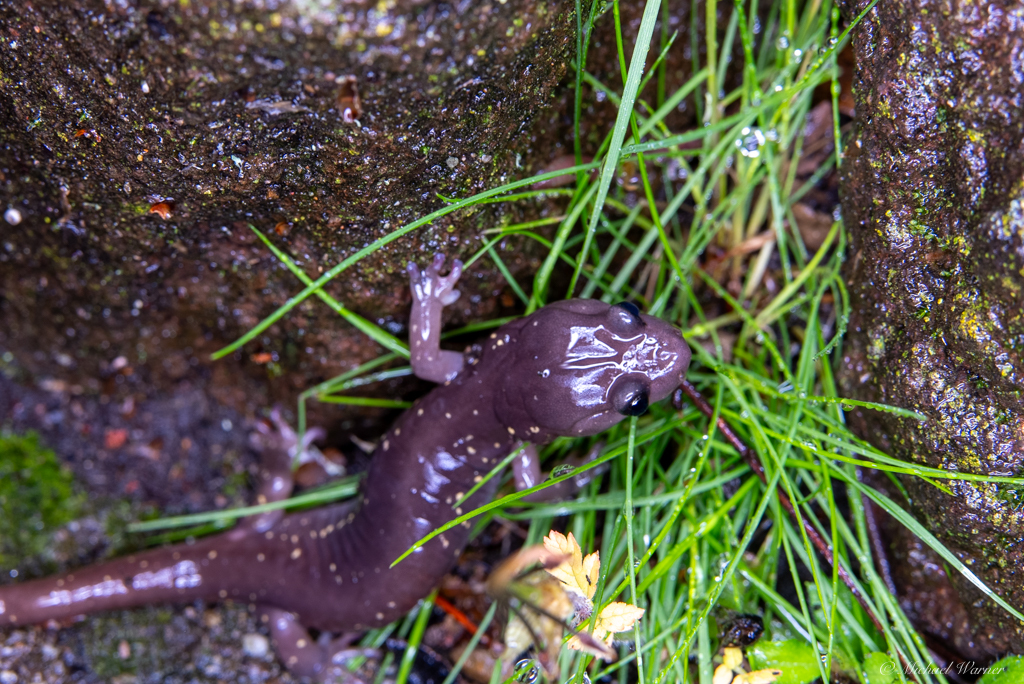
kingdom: Animalia
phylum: Chordata
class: Amphibia
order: Caudata
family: Plethodontidae
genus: Aneides
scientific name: Aneides lugubris
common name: Arboreal salamander
